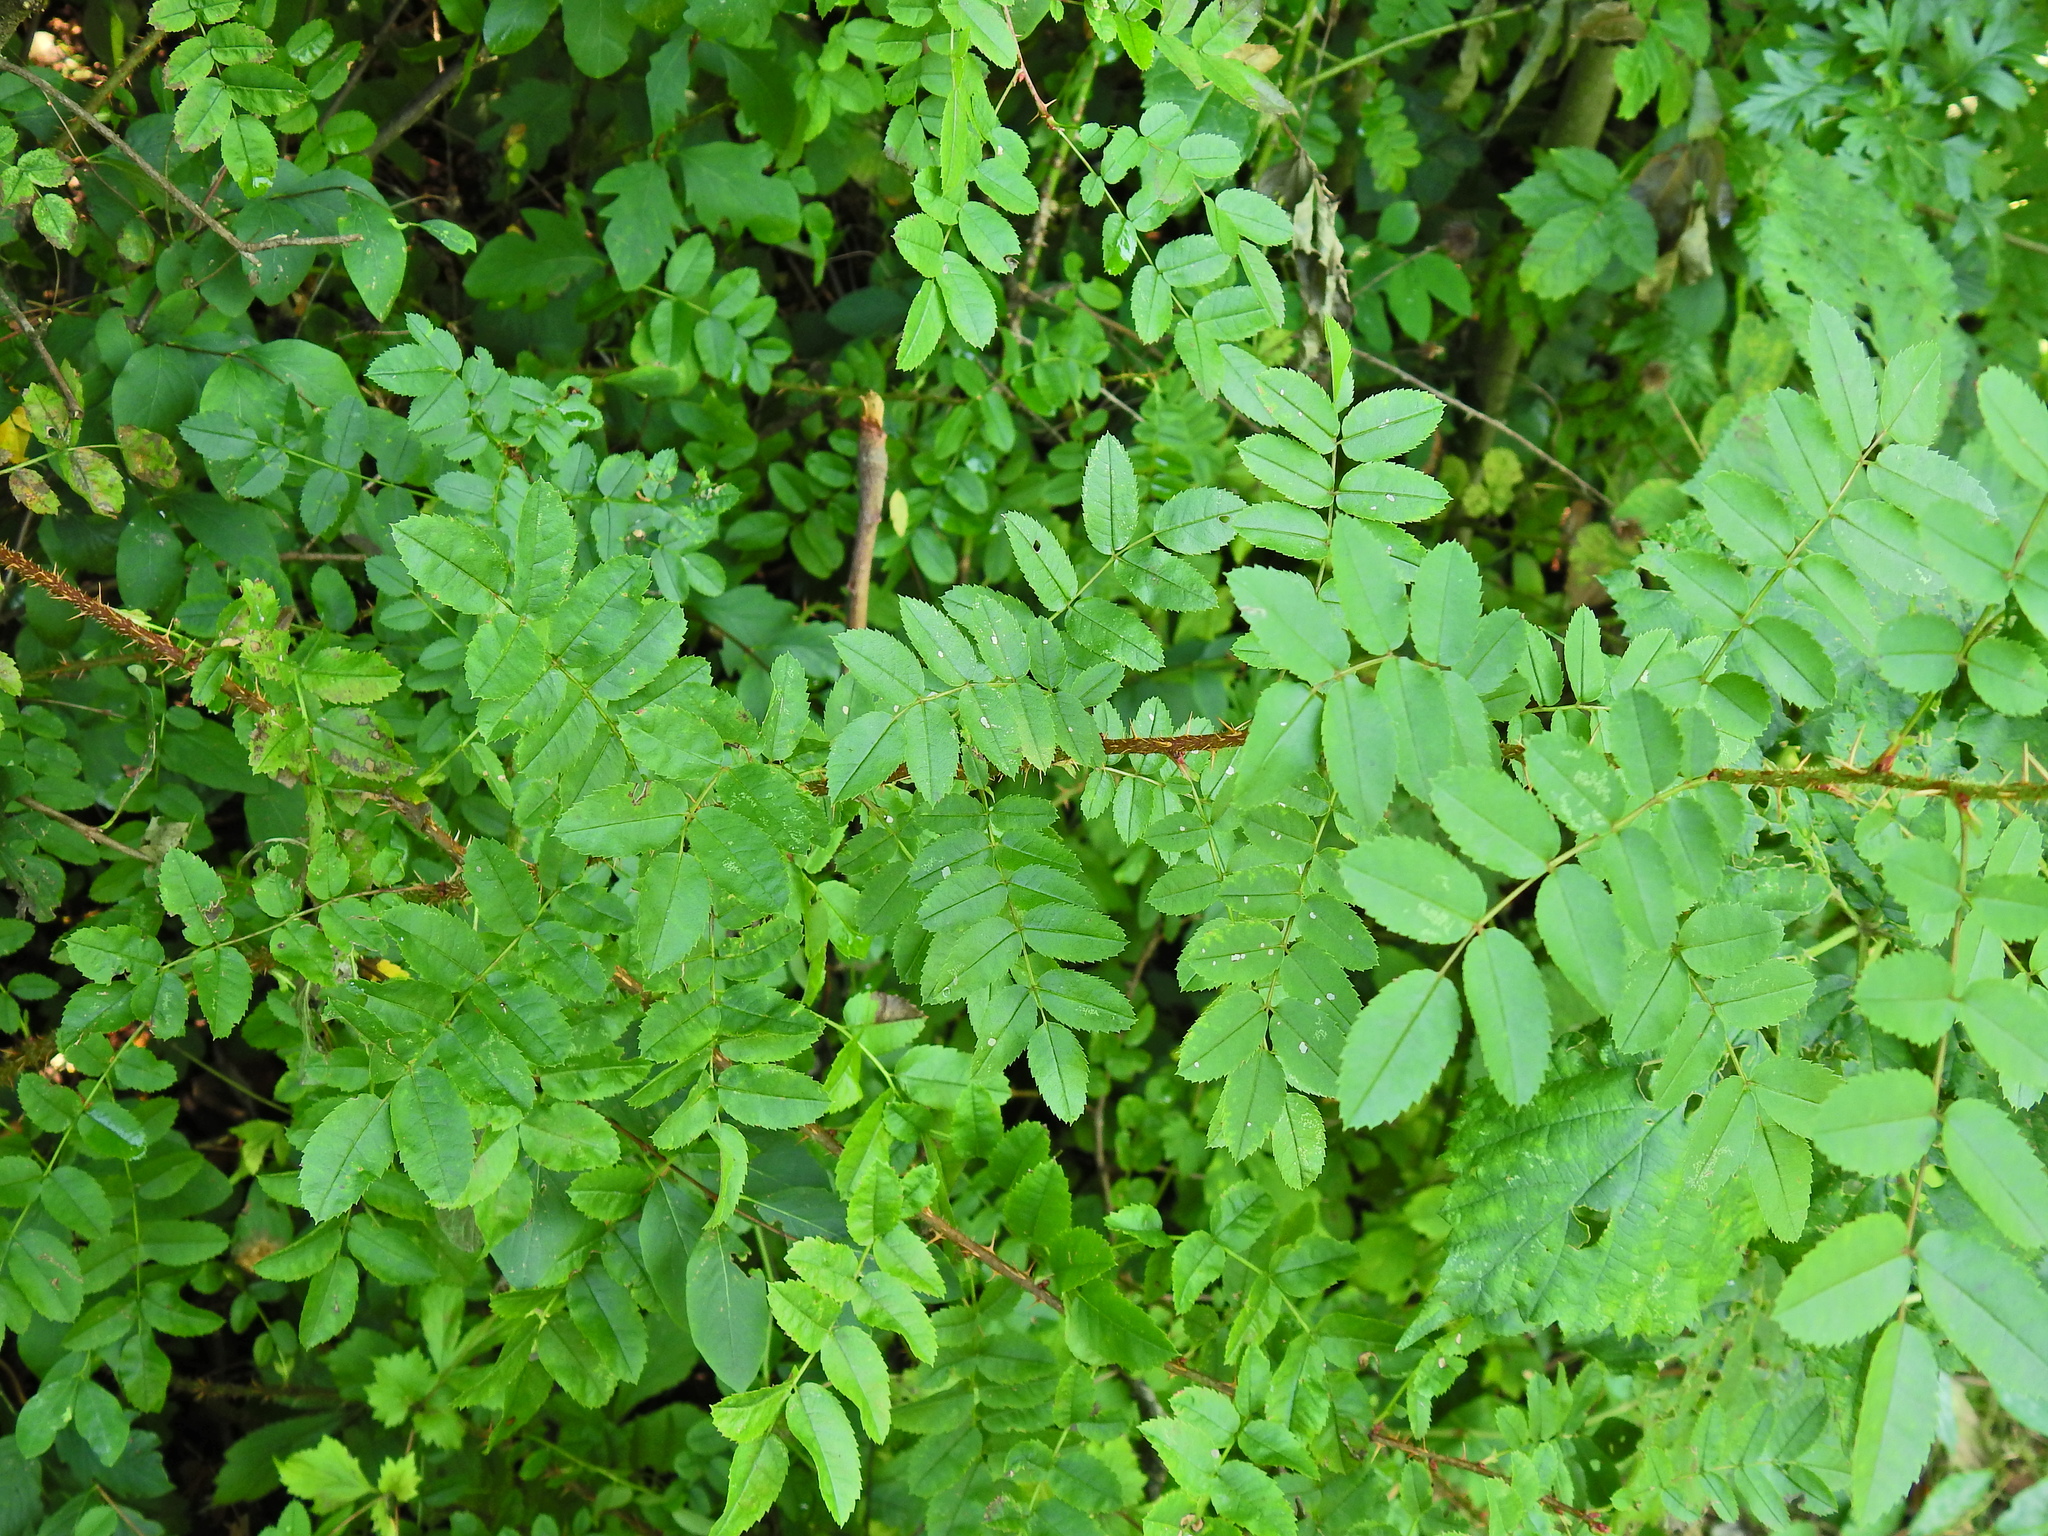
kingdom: Plantae
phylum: Tracheophyta
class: Magnoliopsida
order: Rosales
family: Rosaceae
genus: Rosa
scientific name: Rosa spinosissima
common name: Burnet rose
